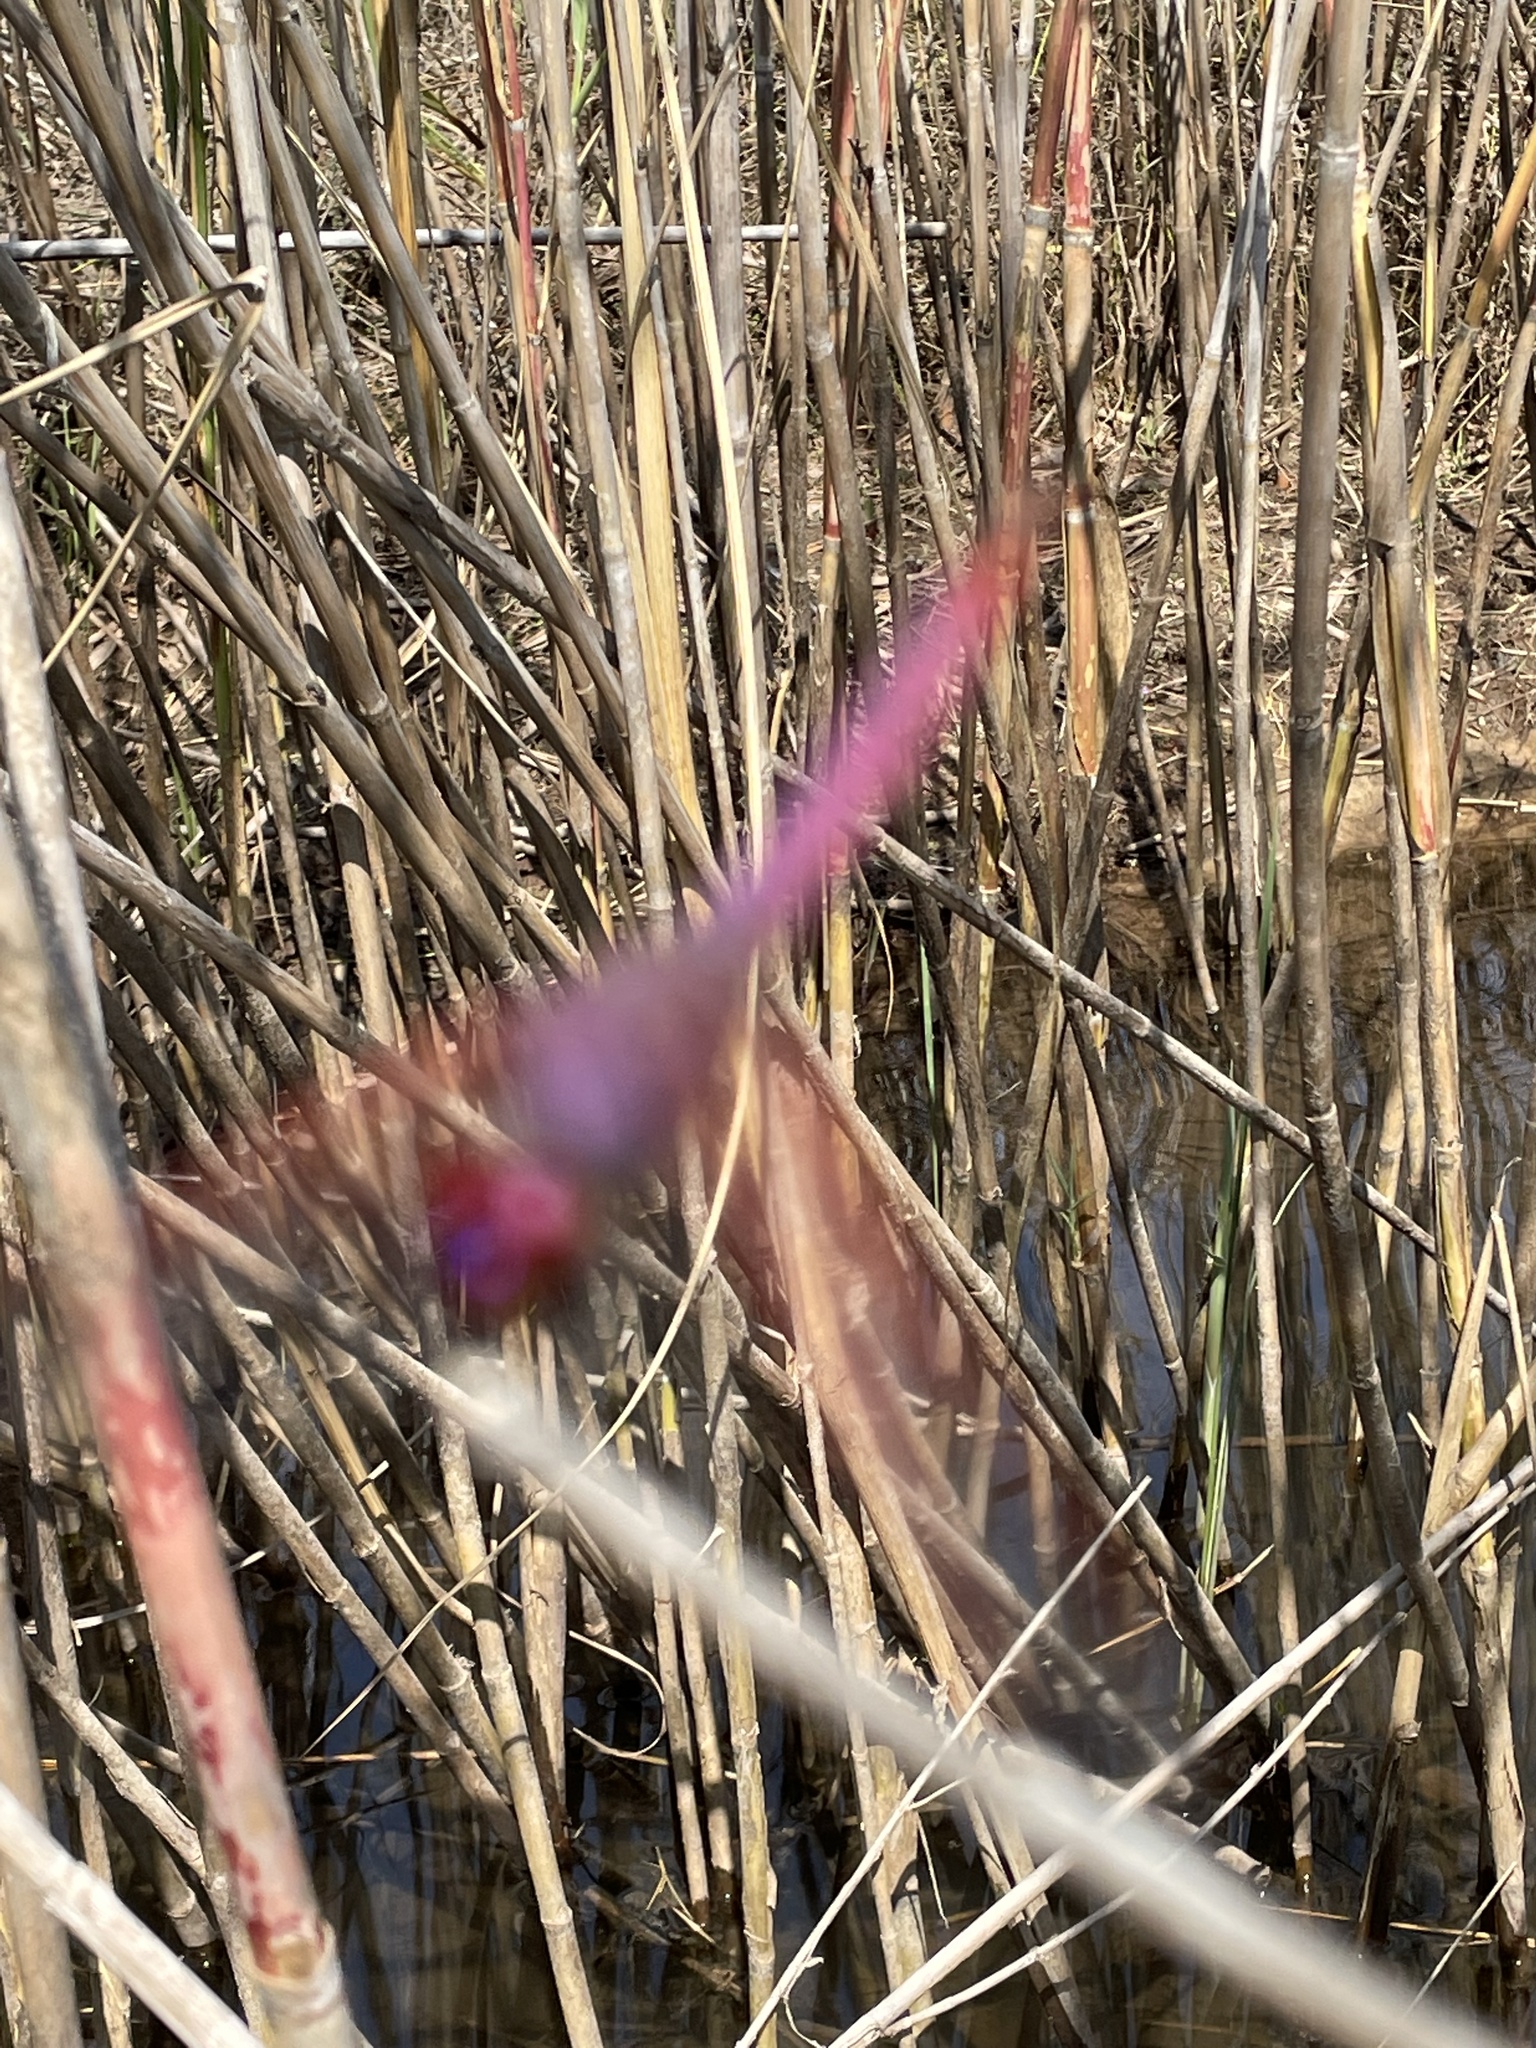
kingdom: Animalia
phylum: Arthropoda
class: Insecta
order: Odonata
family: Libellulidae
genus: Trithemis
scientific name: Trithemis annulata
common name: Violet dropwing
